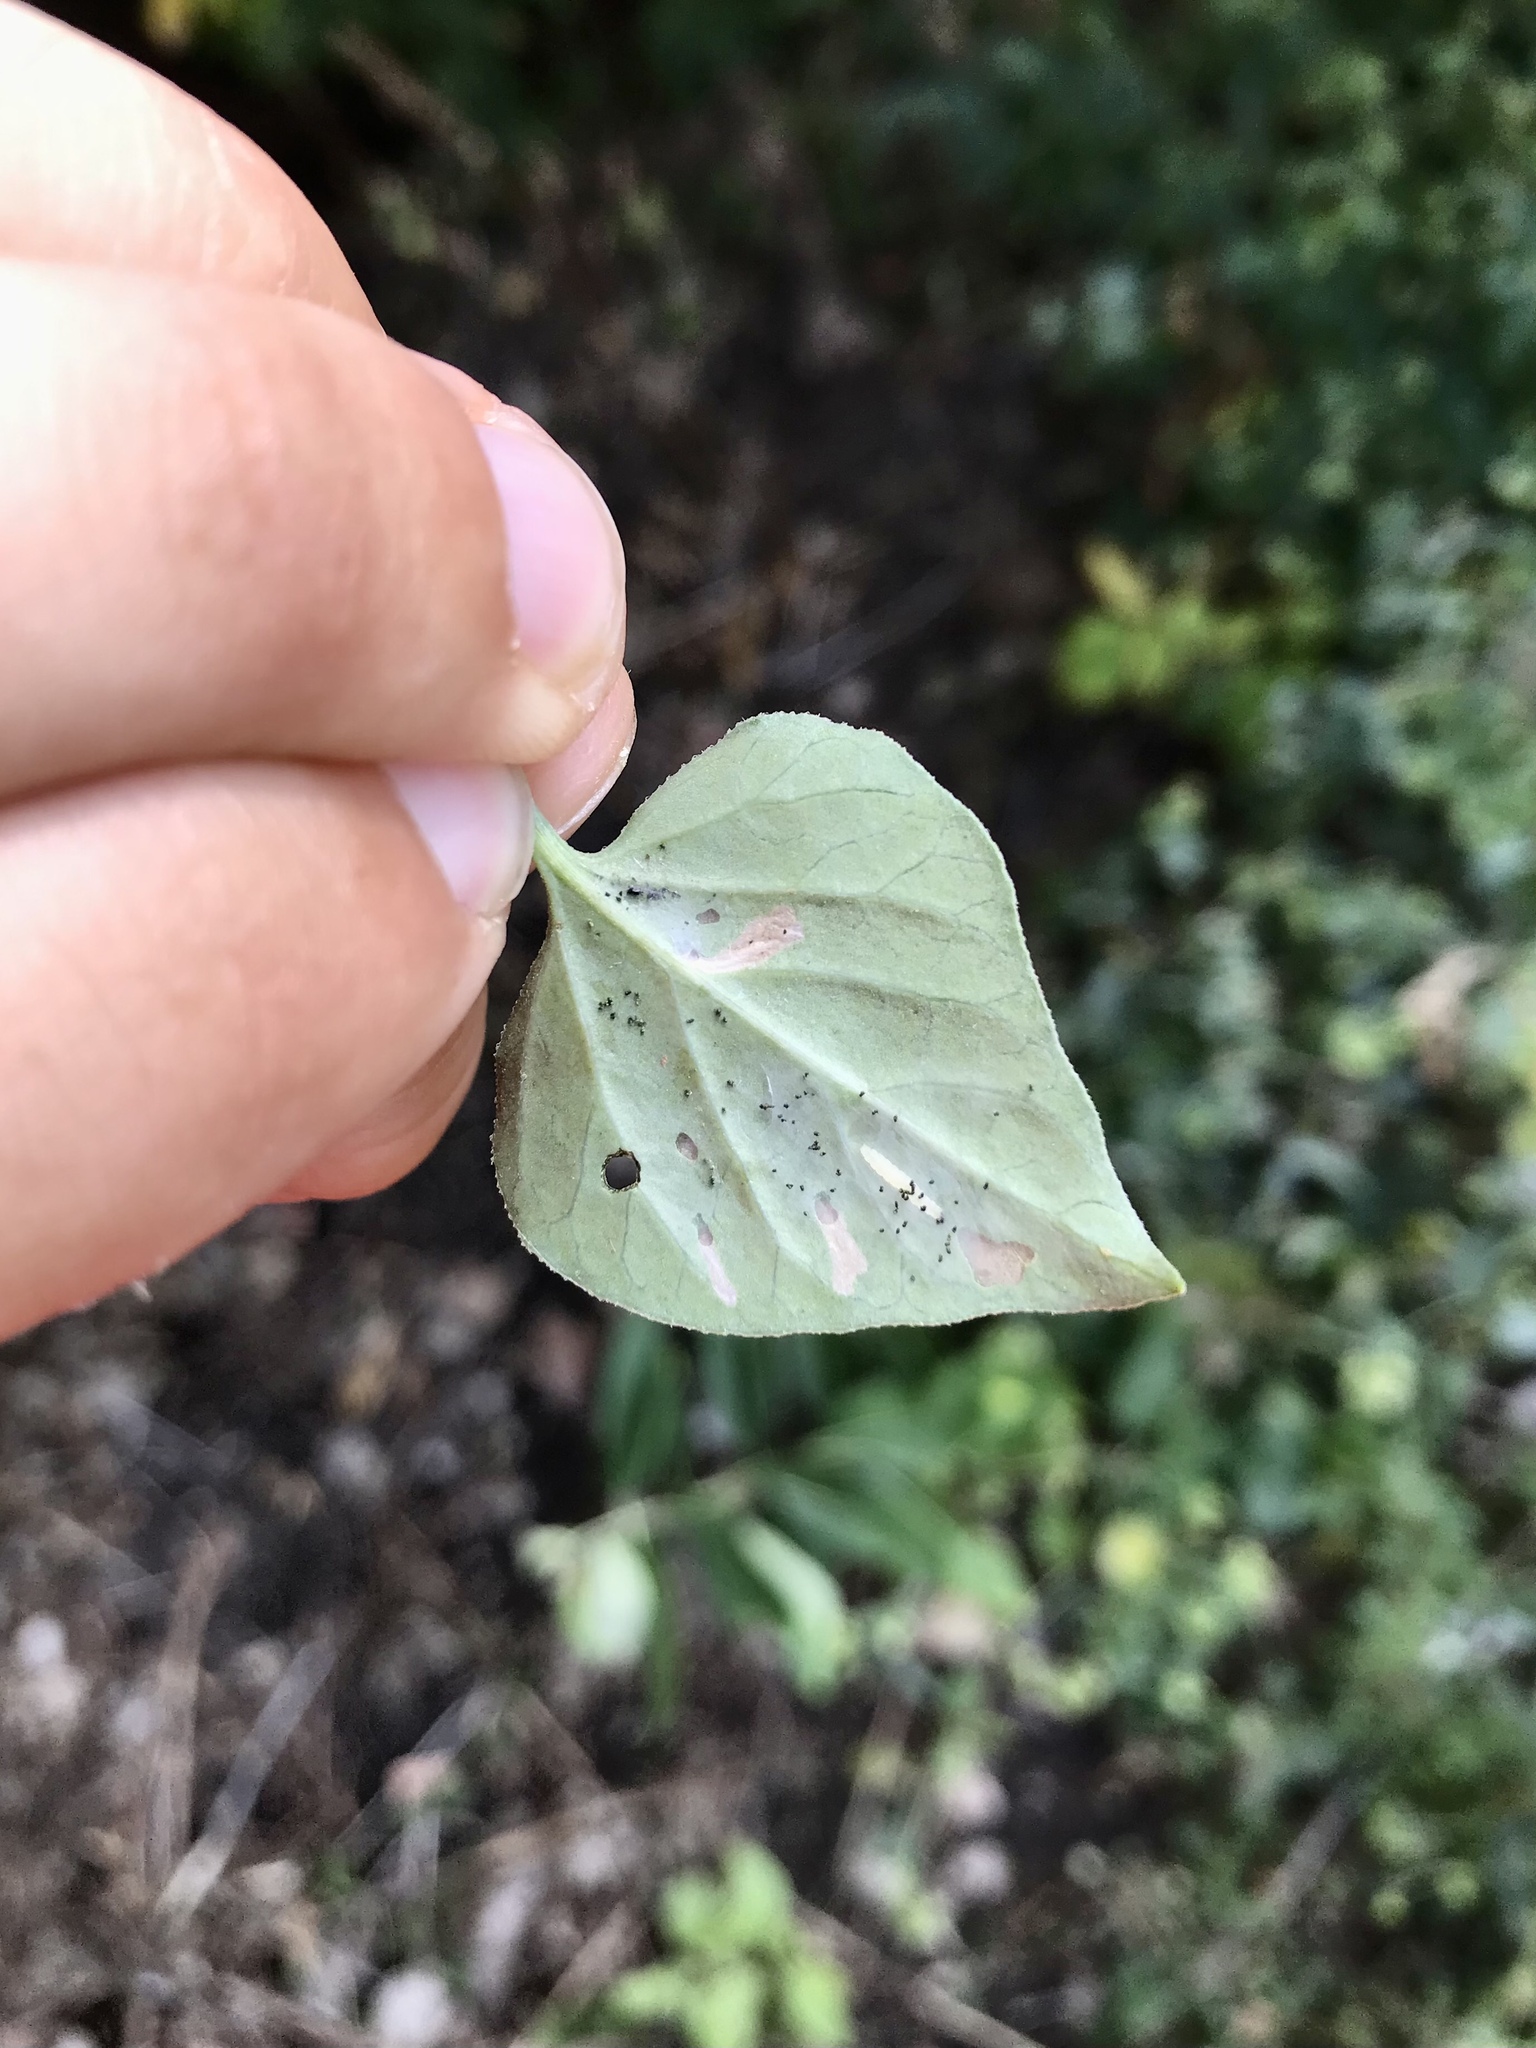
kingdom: Animalia
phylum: Arthropoda
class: Insecta
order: Lepidoptera
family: Heliodinidae
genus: Neoheliodines
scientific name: Neoheliodines cliffordi
